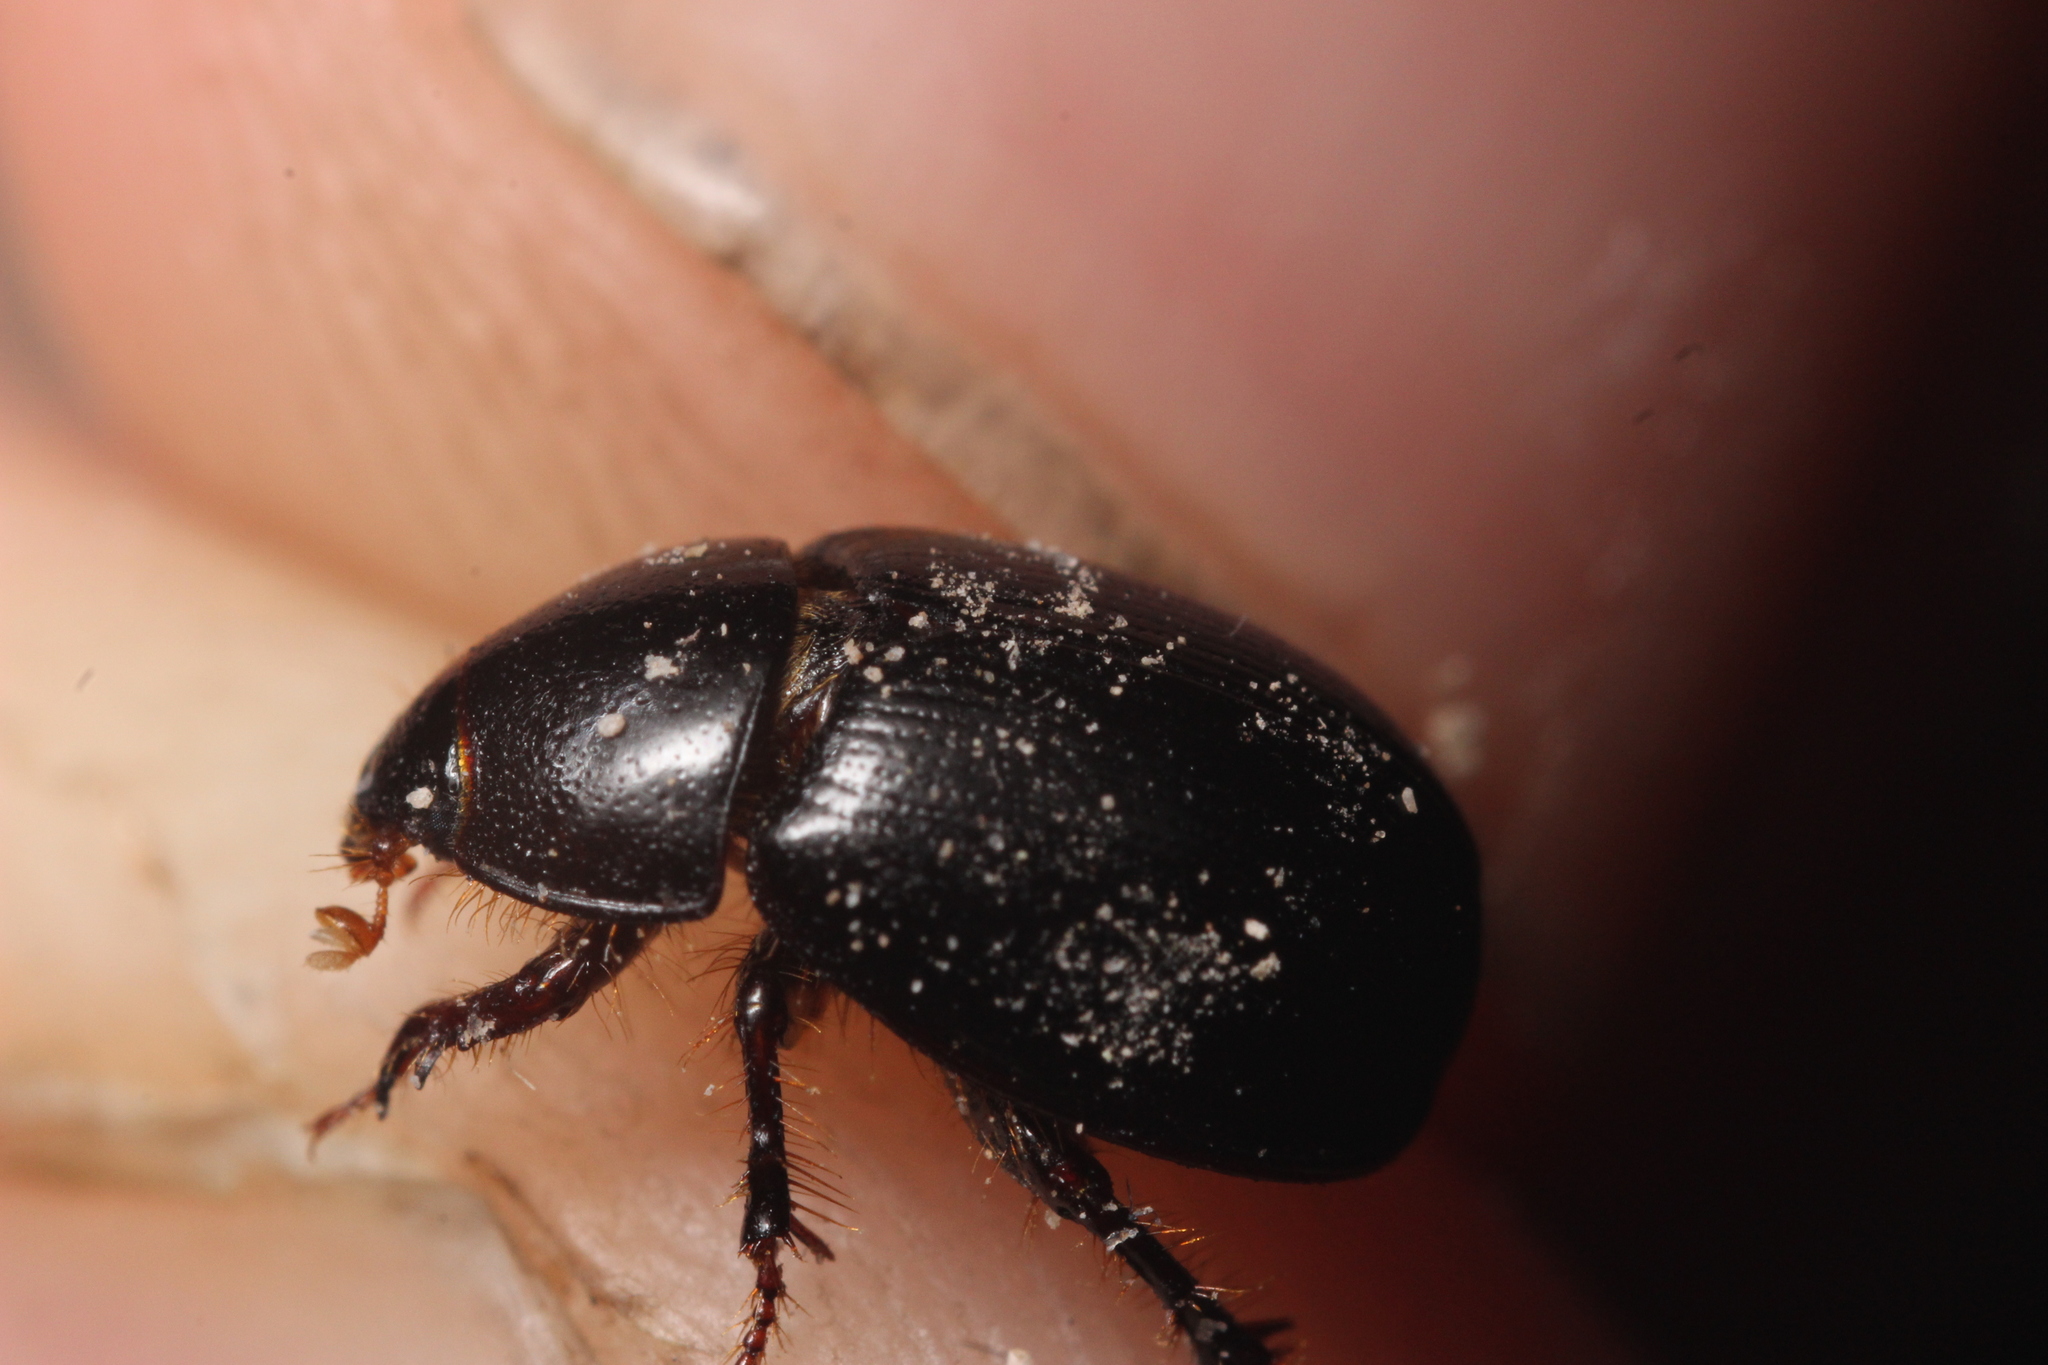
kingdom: Animalia
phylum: Arthropoda
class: Insecta
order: Coleoptera
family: Hybosoridae
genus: Hybosorus
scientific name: Hybosorus illigeri
